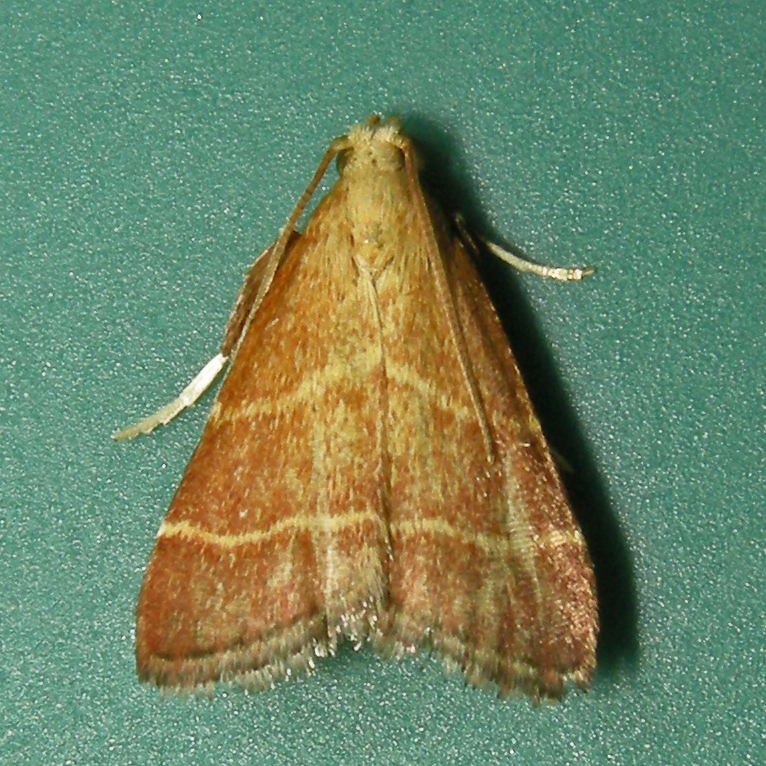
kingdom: Animalia
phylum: Arthropoda
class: Insecta
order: Lepidoptera
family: Pyralidae
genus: Arta
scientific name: Arta statalis
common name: Posturing arta moth
